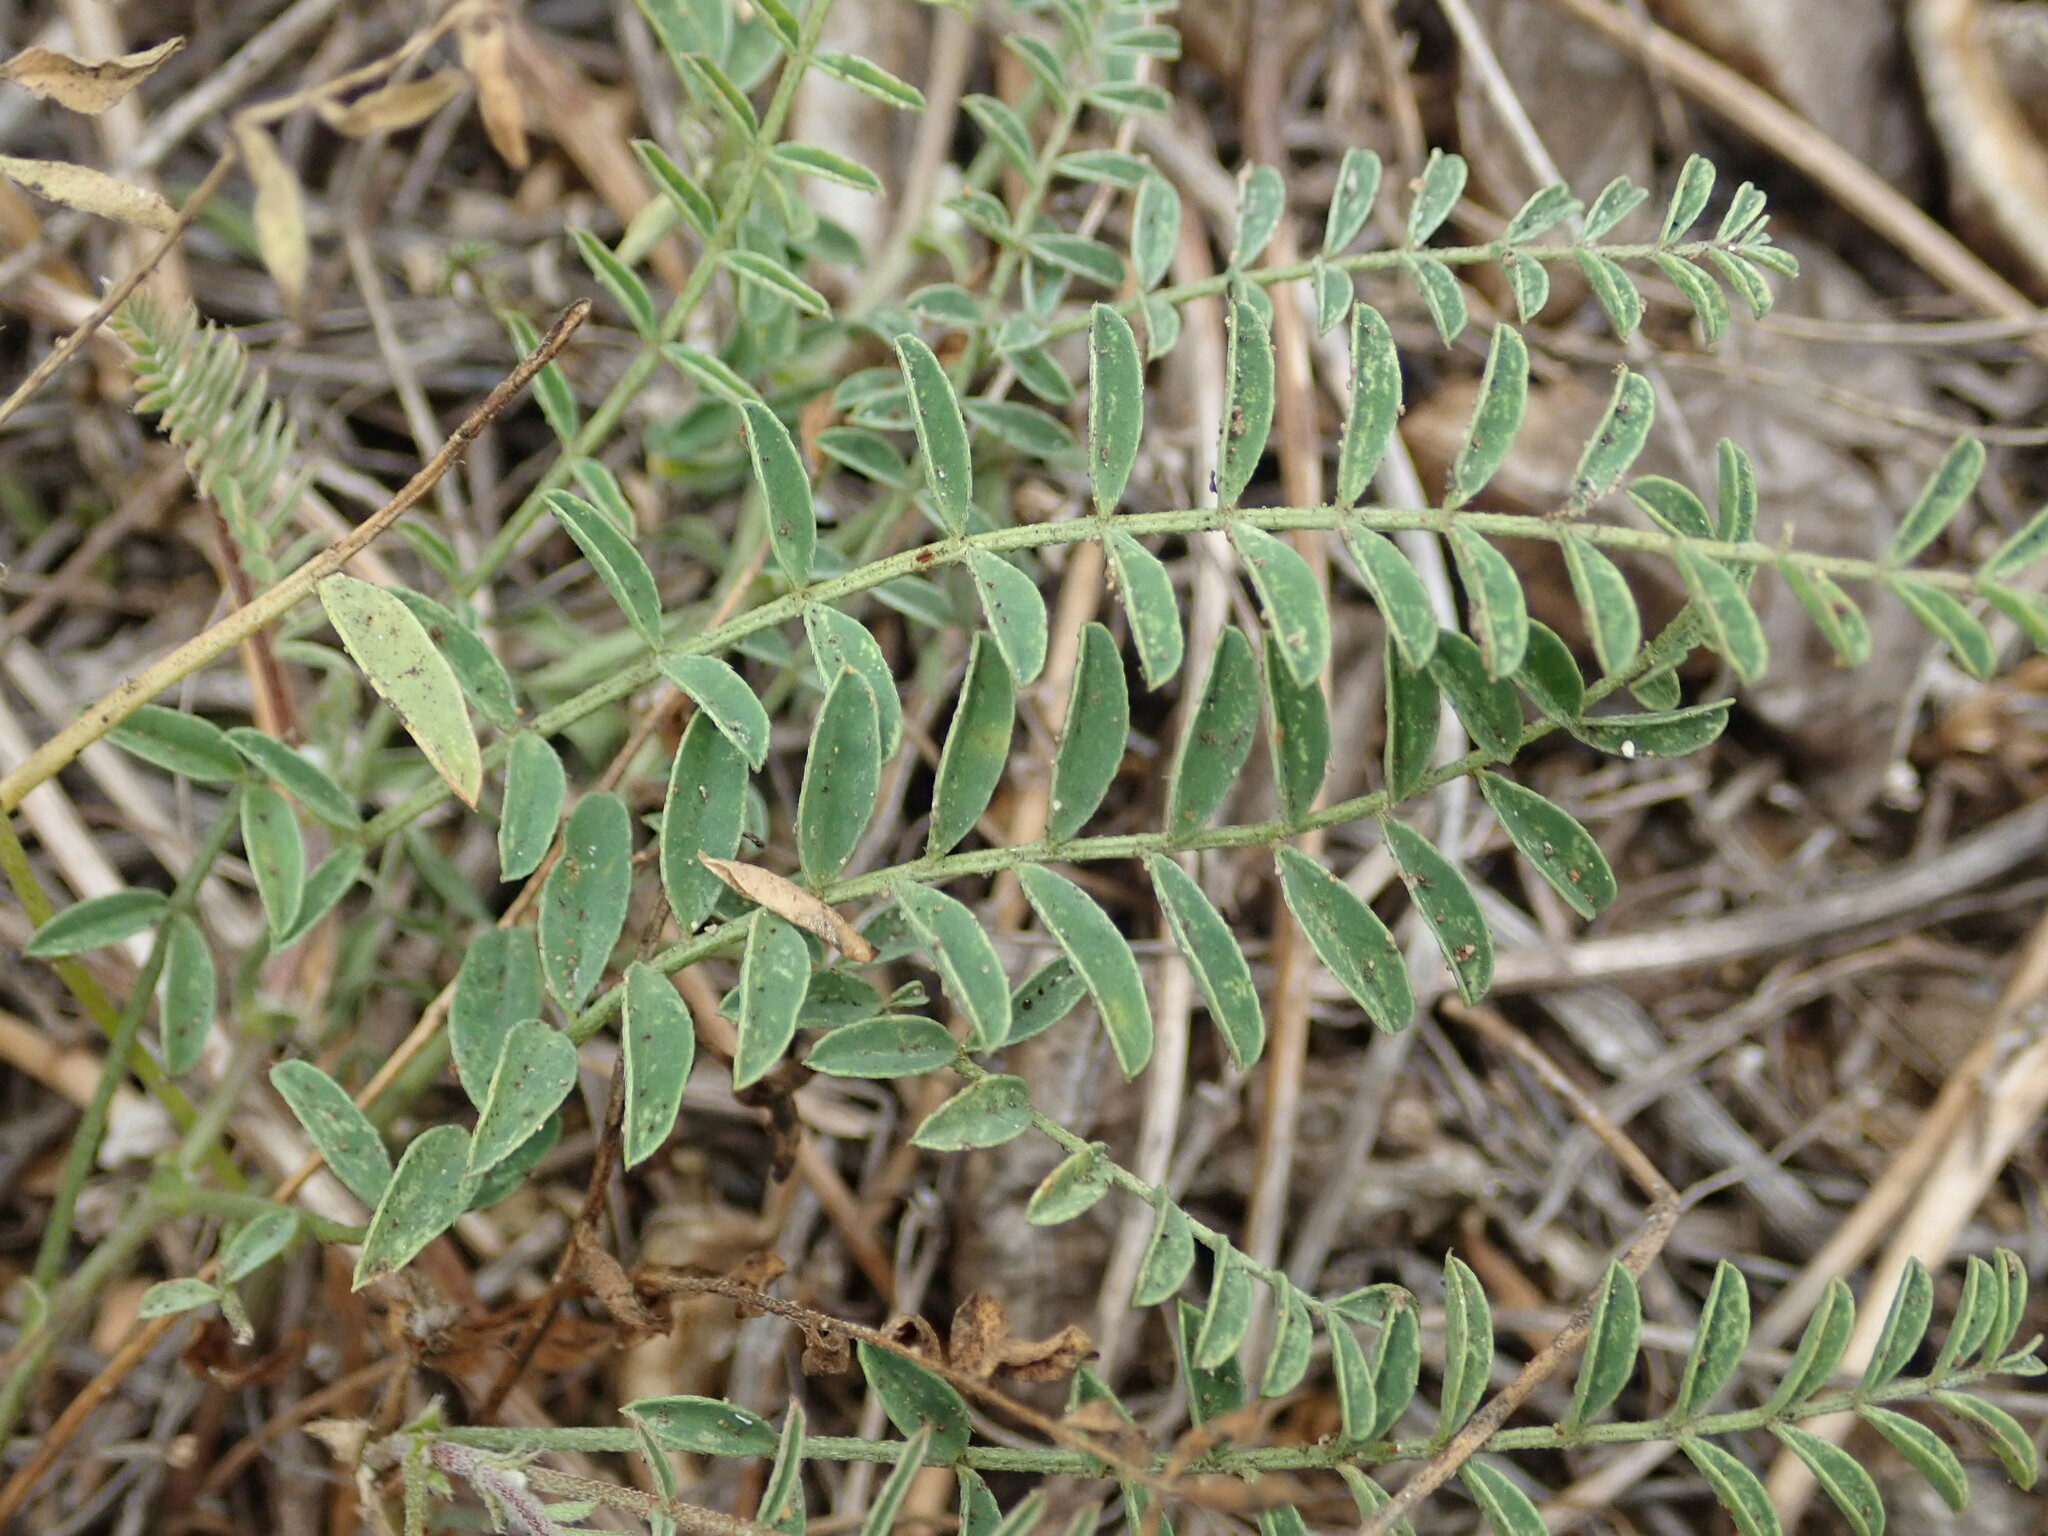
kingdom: Plantae
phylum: Tracheophyta
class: Magnoliopsida
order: Fabales
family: Fabaceae
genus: Astragalus
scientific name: Astragalus pomonensis
